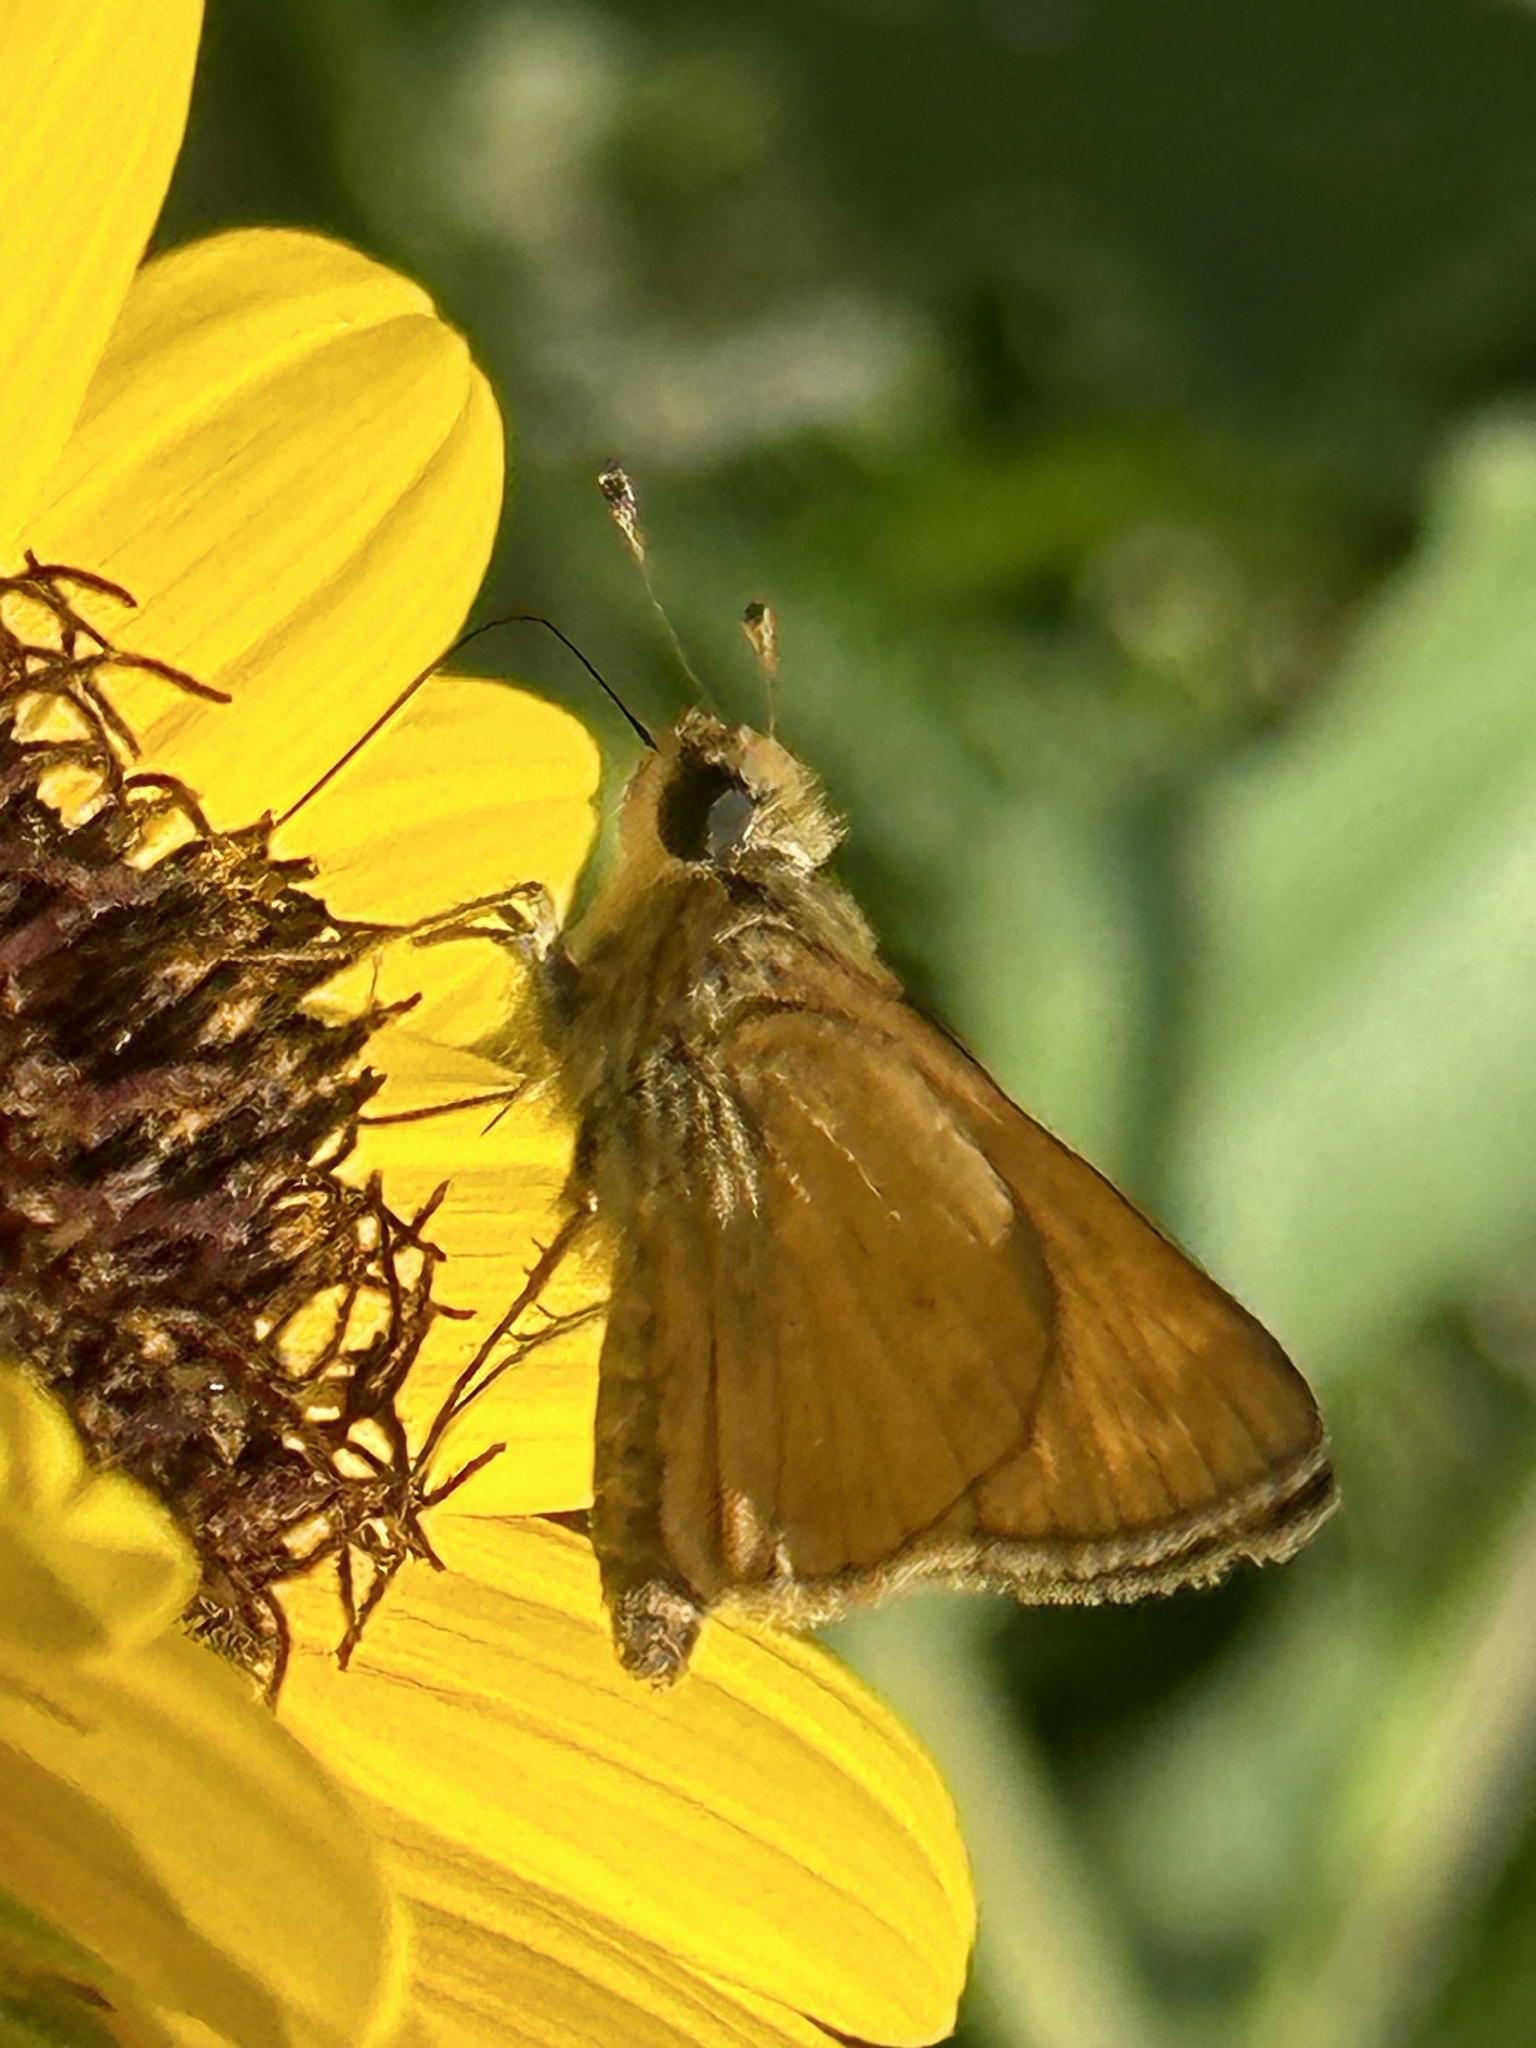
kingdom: Animalia
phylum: Arthropoda
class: Insecta
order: Lepidoptera
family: Hesperiidae
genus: Atalopedes
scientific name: Atalopedes
